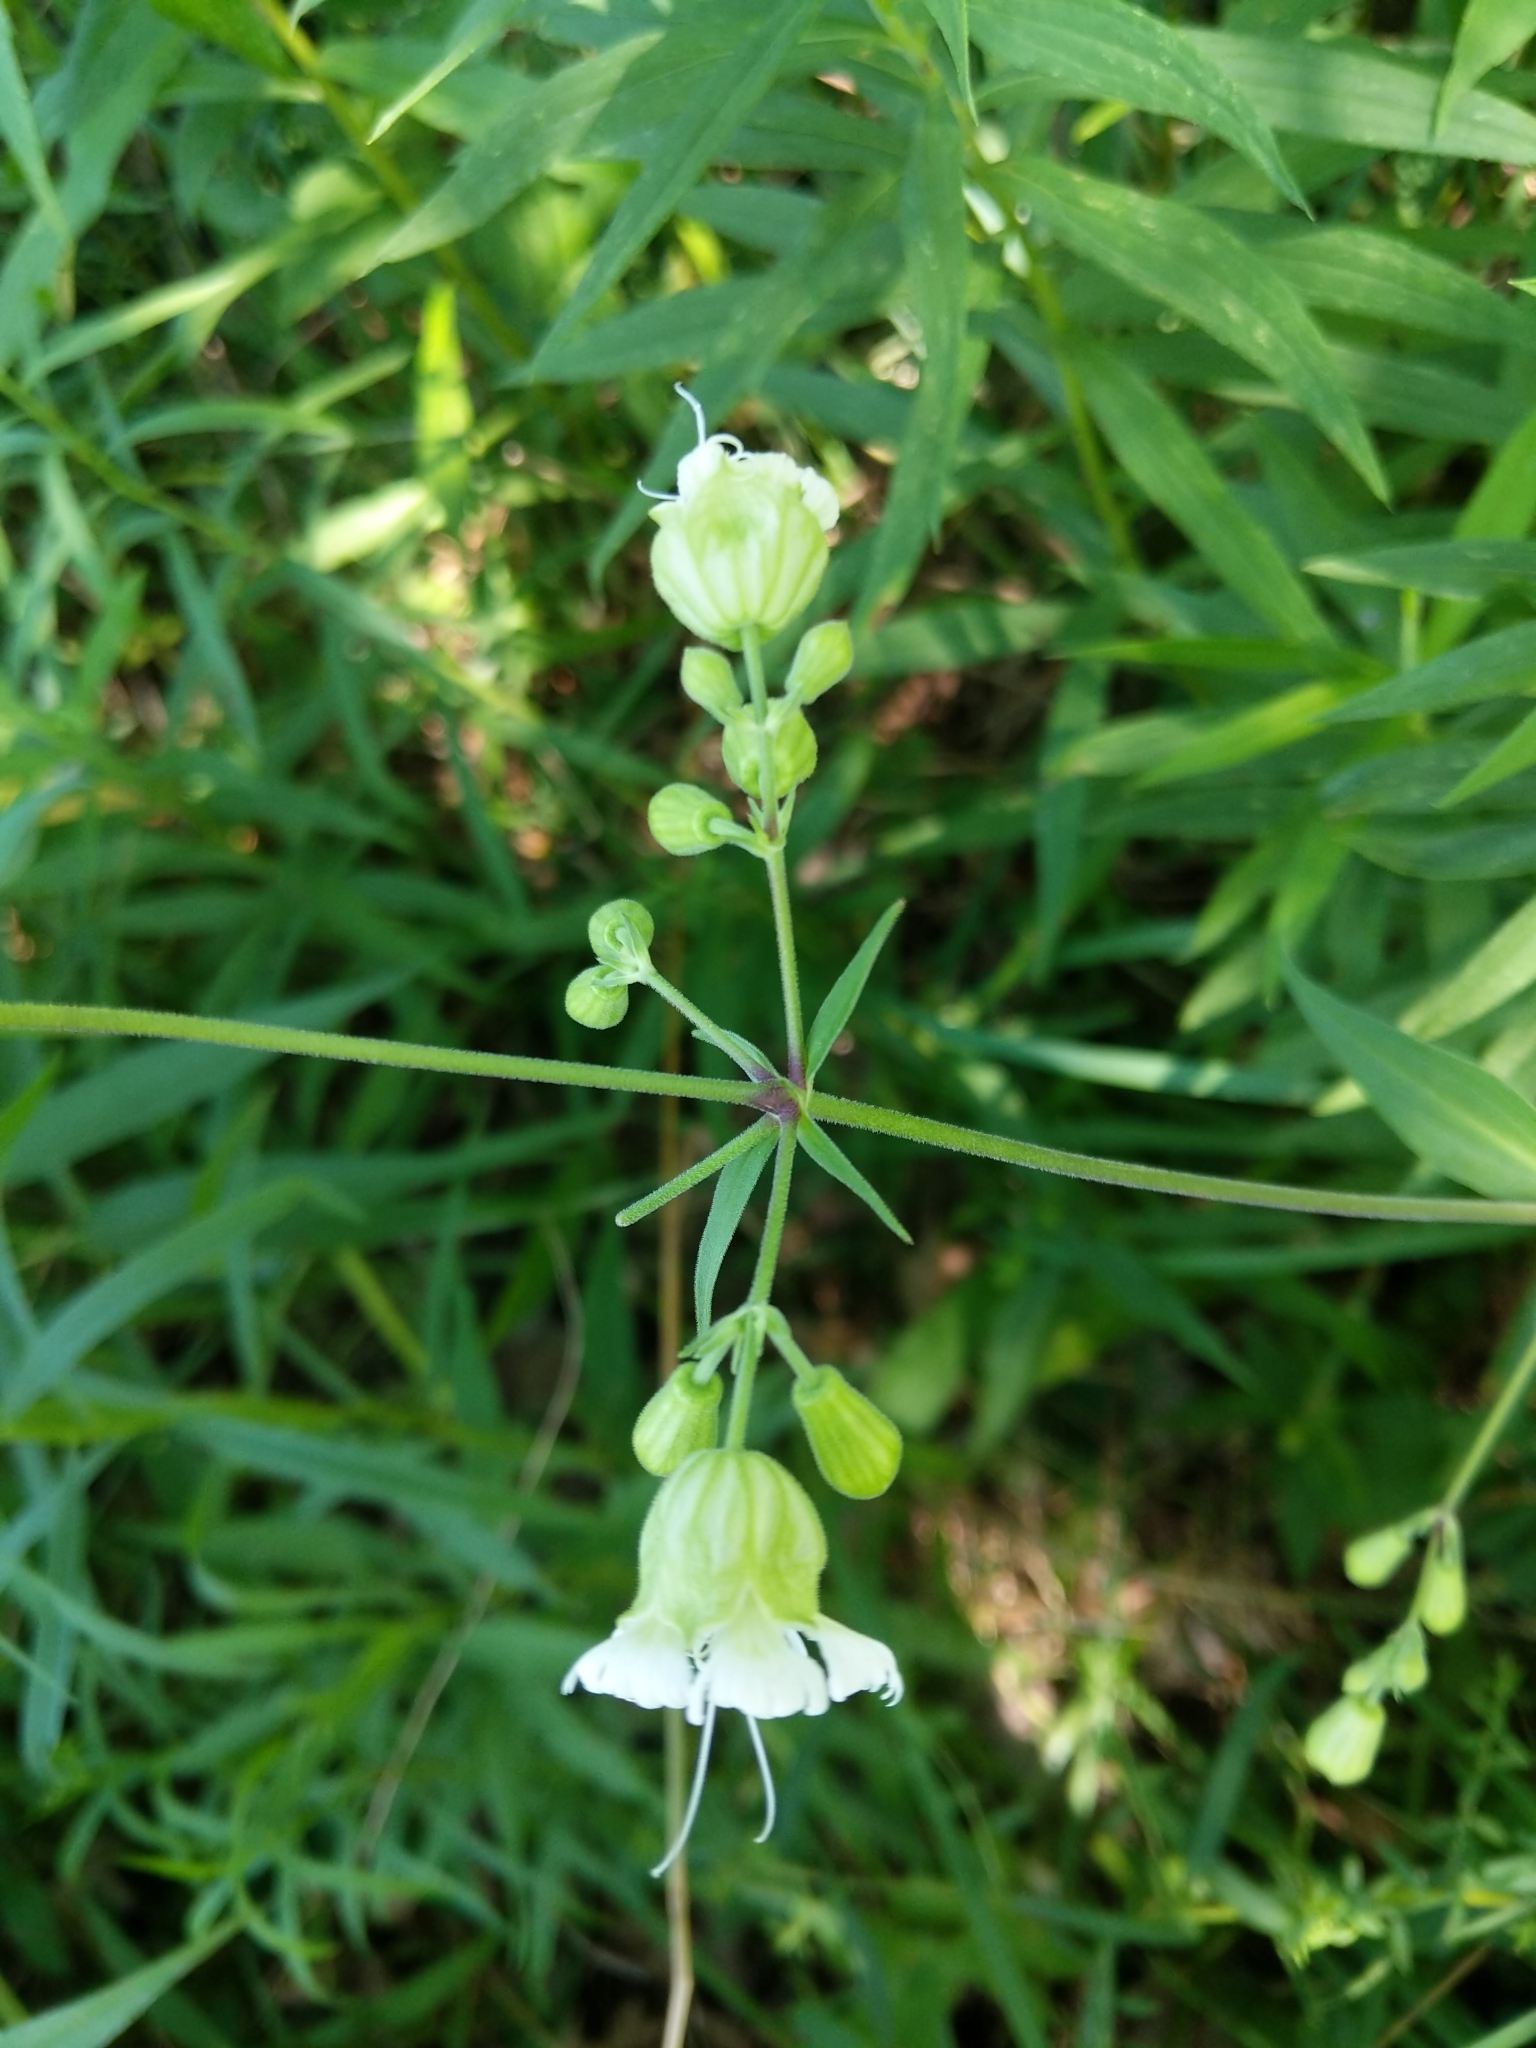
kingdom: Plantae
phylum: Tracheophyta
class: Magnoliopsida
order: Caryophyllales
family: Caryophyllaceae
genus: Silene
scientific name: Silene stellata
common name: Starry campion
